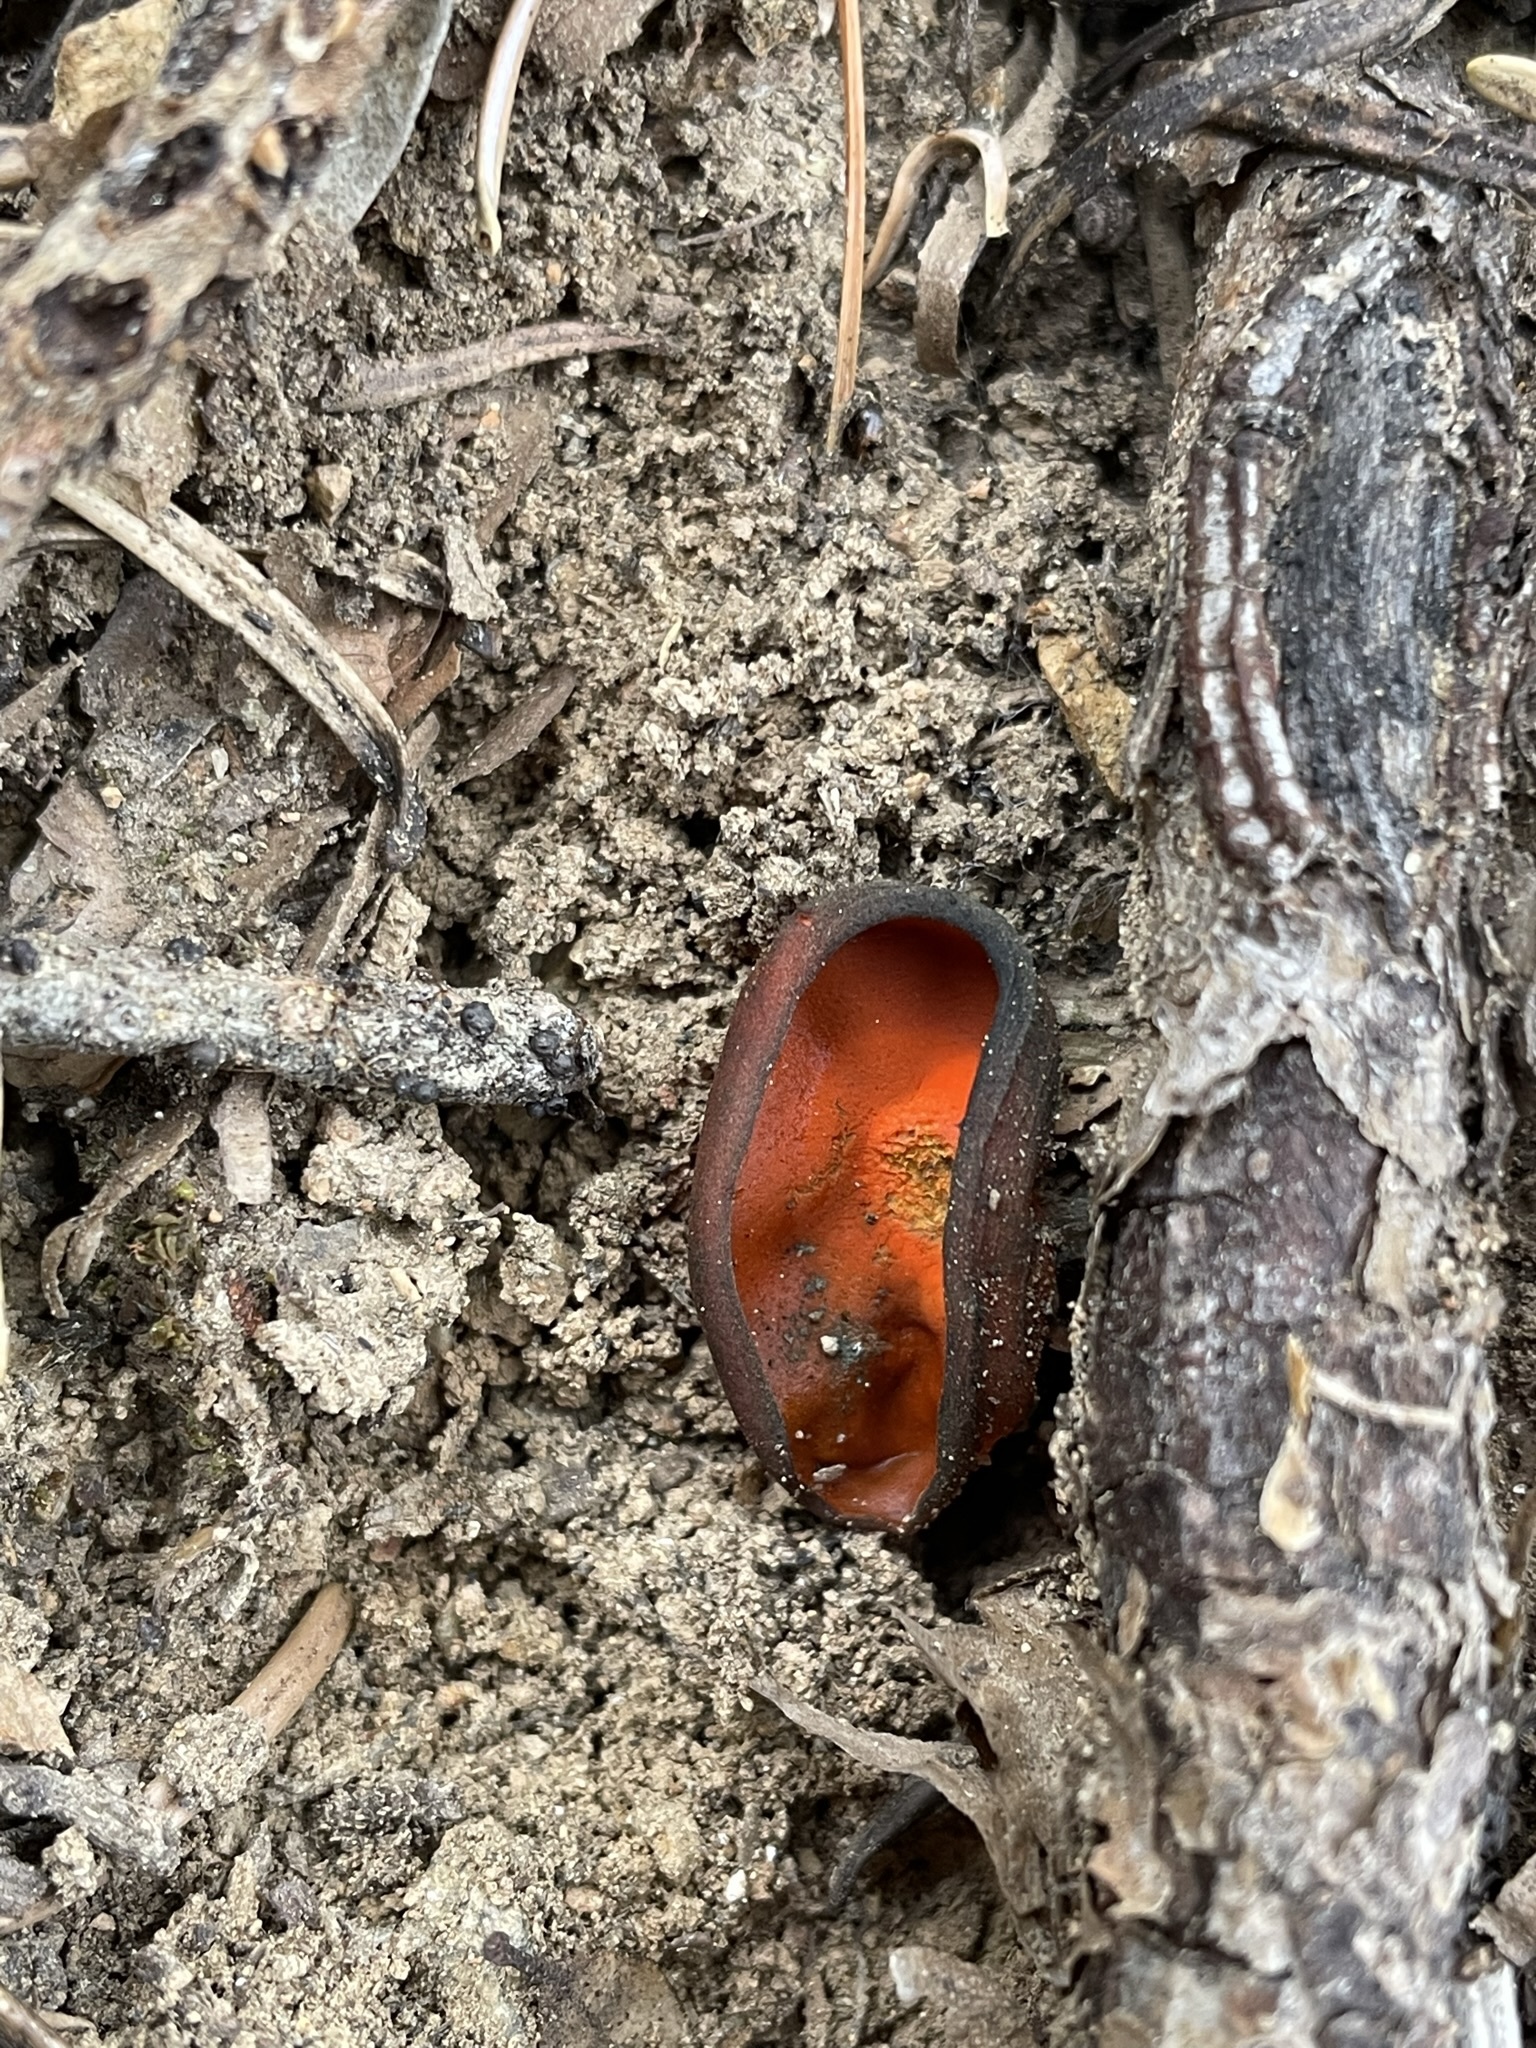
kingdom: Fungi
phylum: Ascomycota
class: Pezizomycetes
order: Pezizales
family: Caloscyphaceae
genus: Caloscypha
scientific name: Caloscypha fulgens
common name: Golden cup
